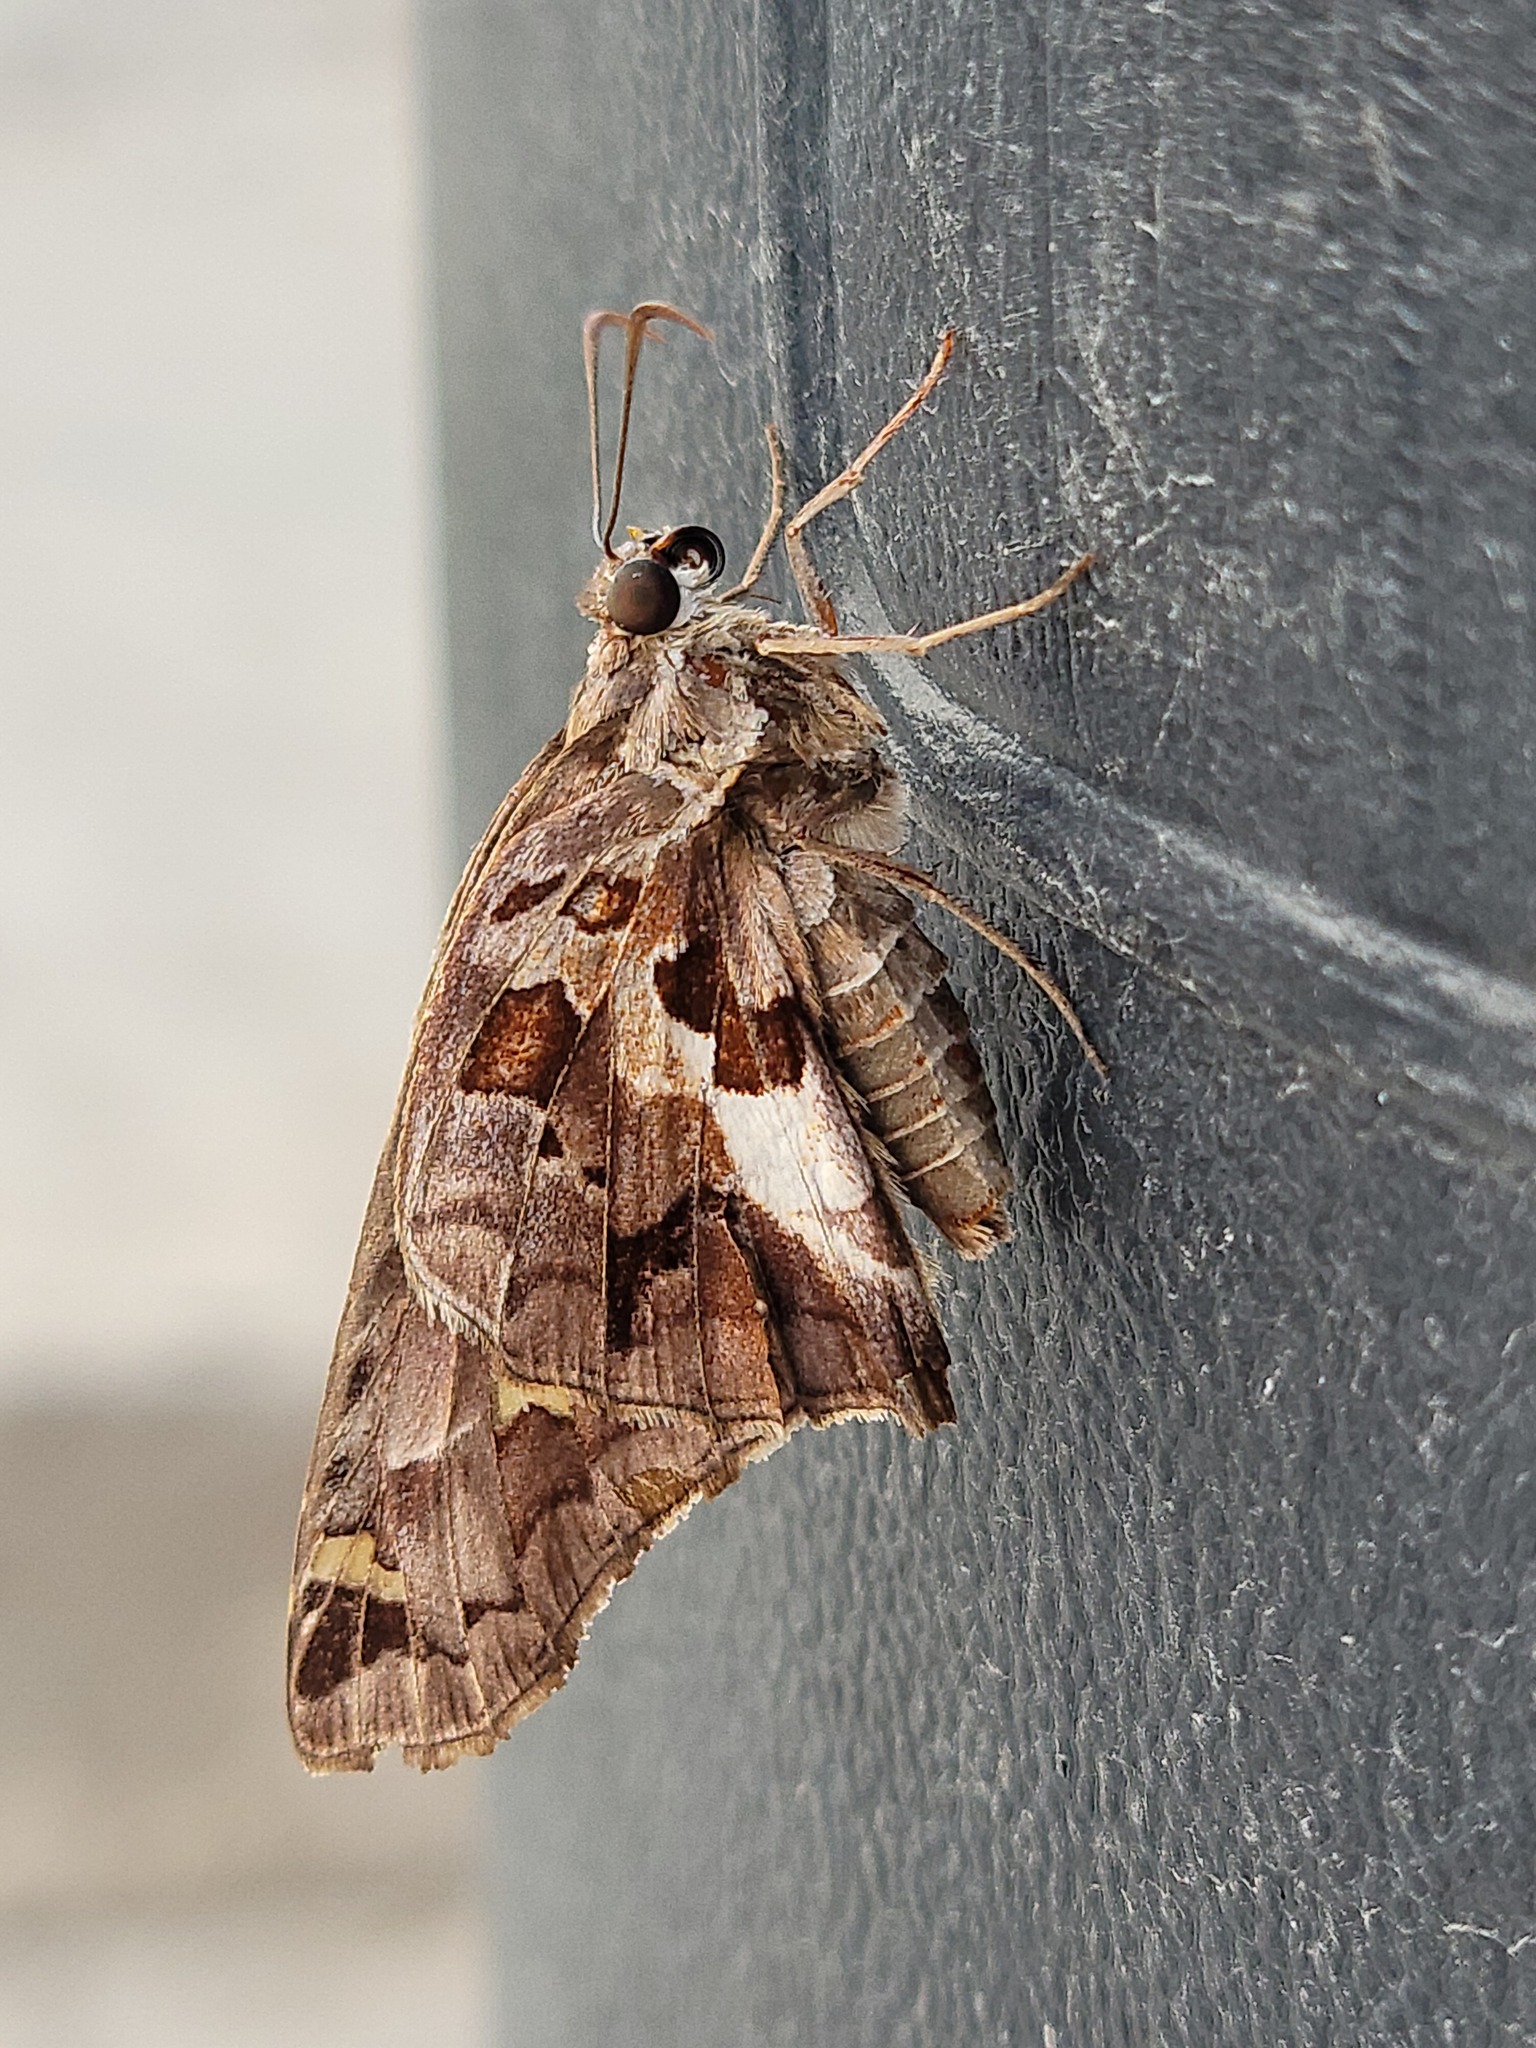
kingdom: Animalia
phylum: Arthropoda
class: Insecta
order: Lepidoptera
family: Hesperiidae
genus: Chioides
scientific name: Chioides zilpa
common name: Zilpa longtail
